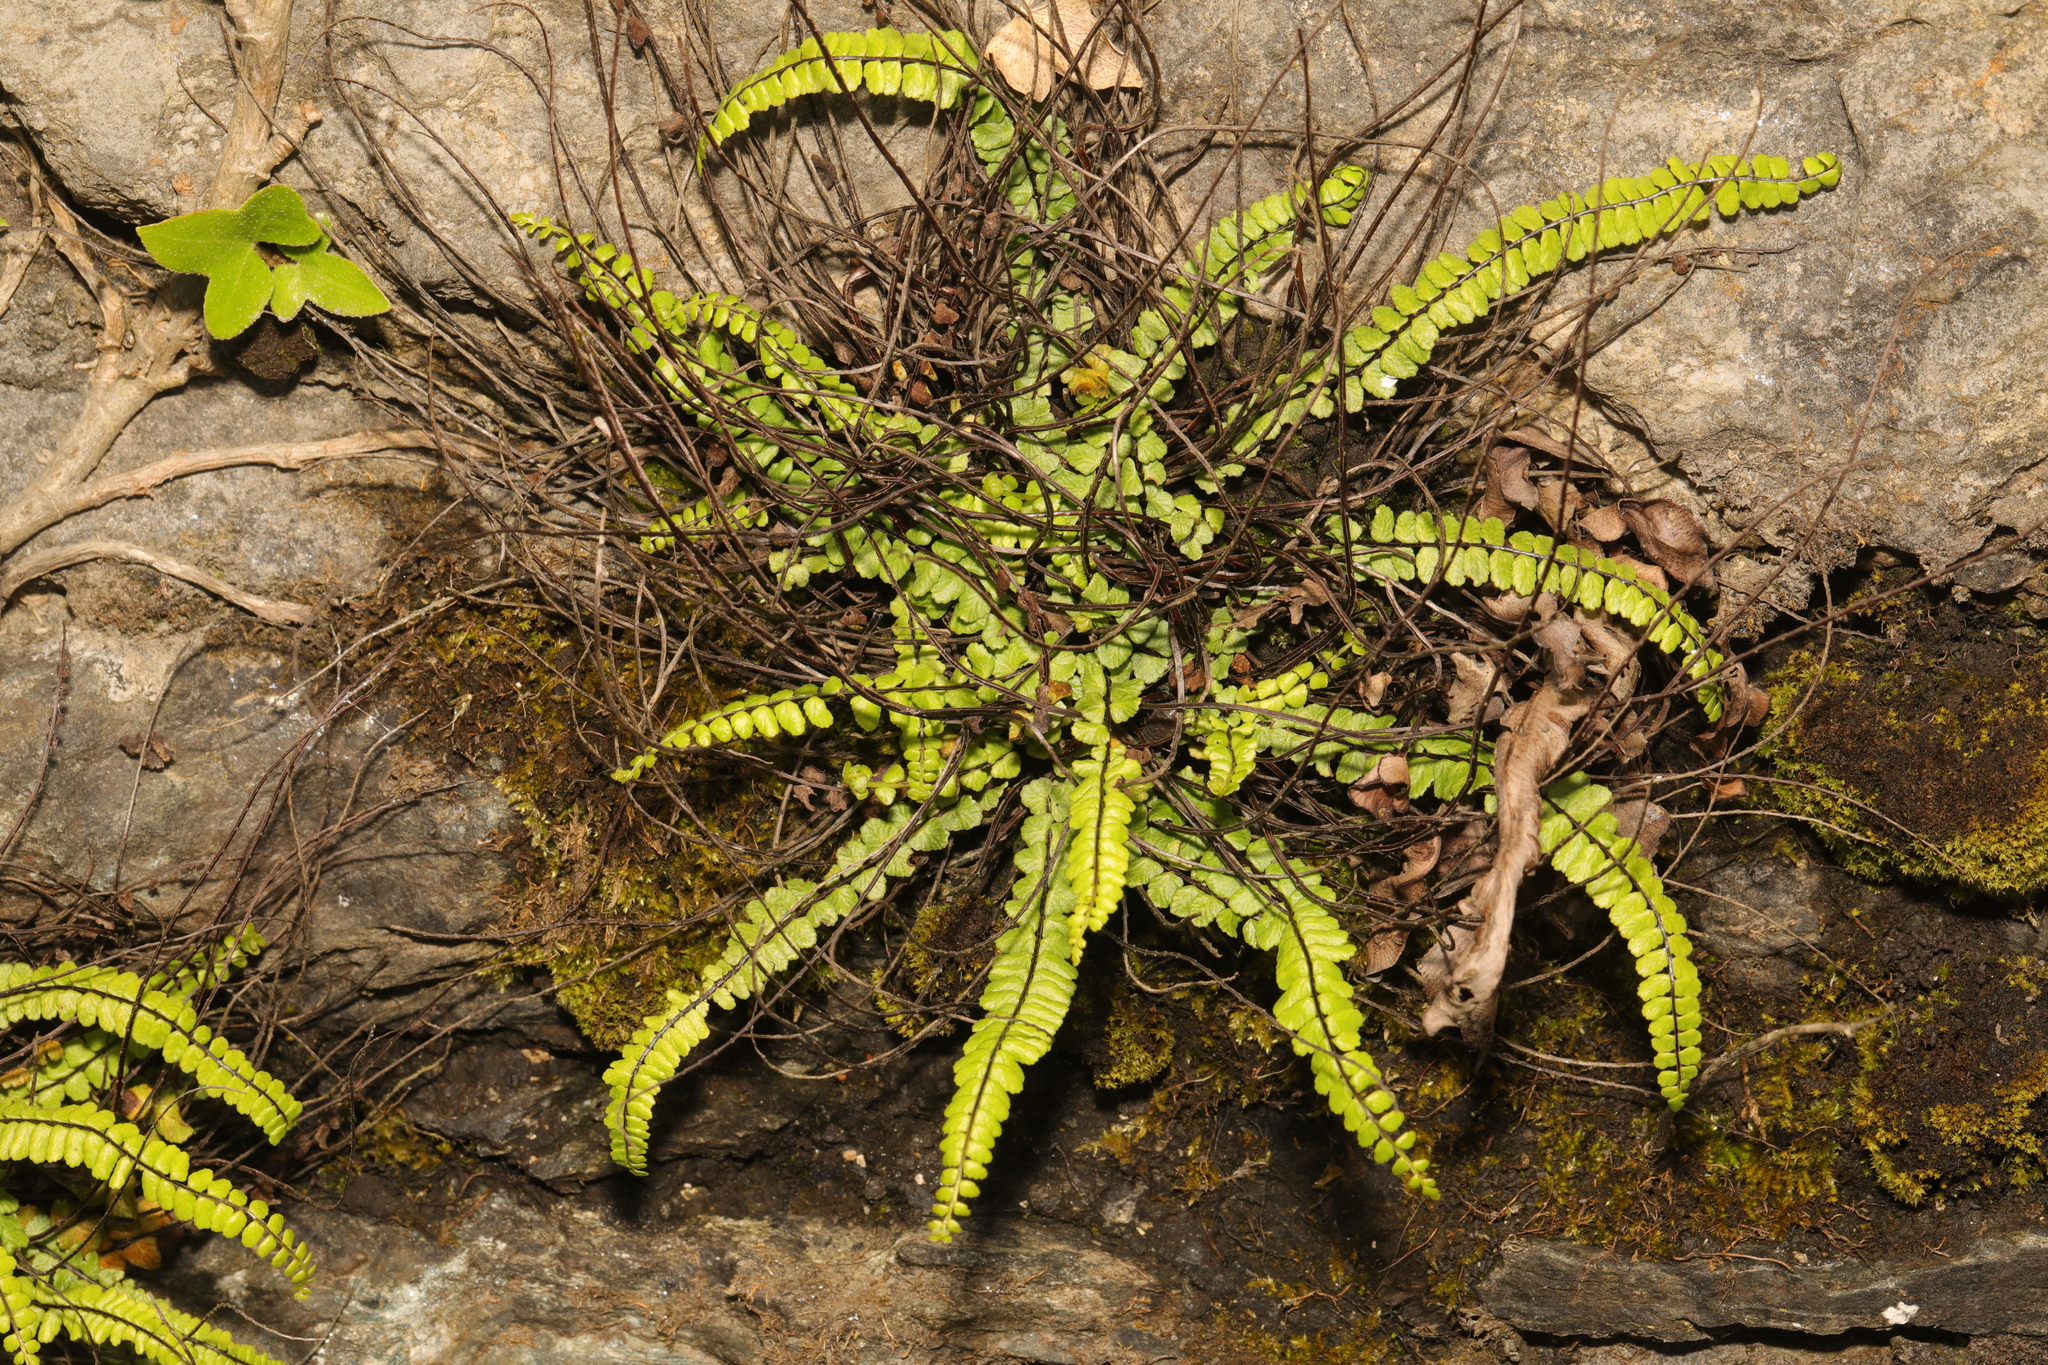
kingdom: Plantae
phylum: Tracheophyta
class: Polypodiopsida
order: Polypodiales
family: Aspleniaceae
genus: Asplenium
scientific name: Asplenium trichomanes
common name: Maidenhair spleenwort
